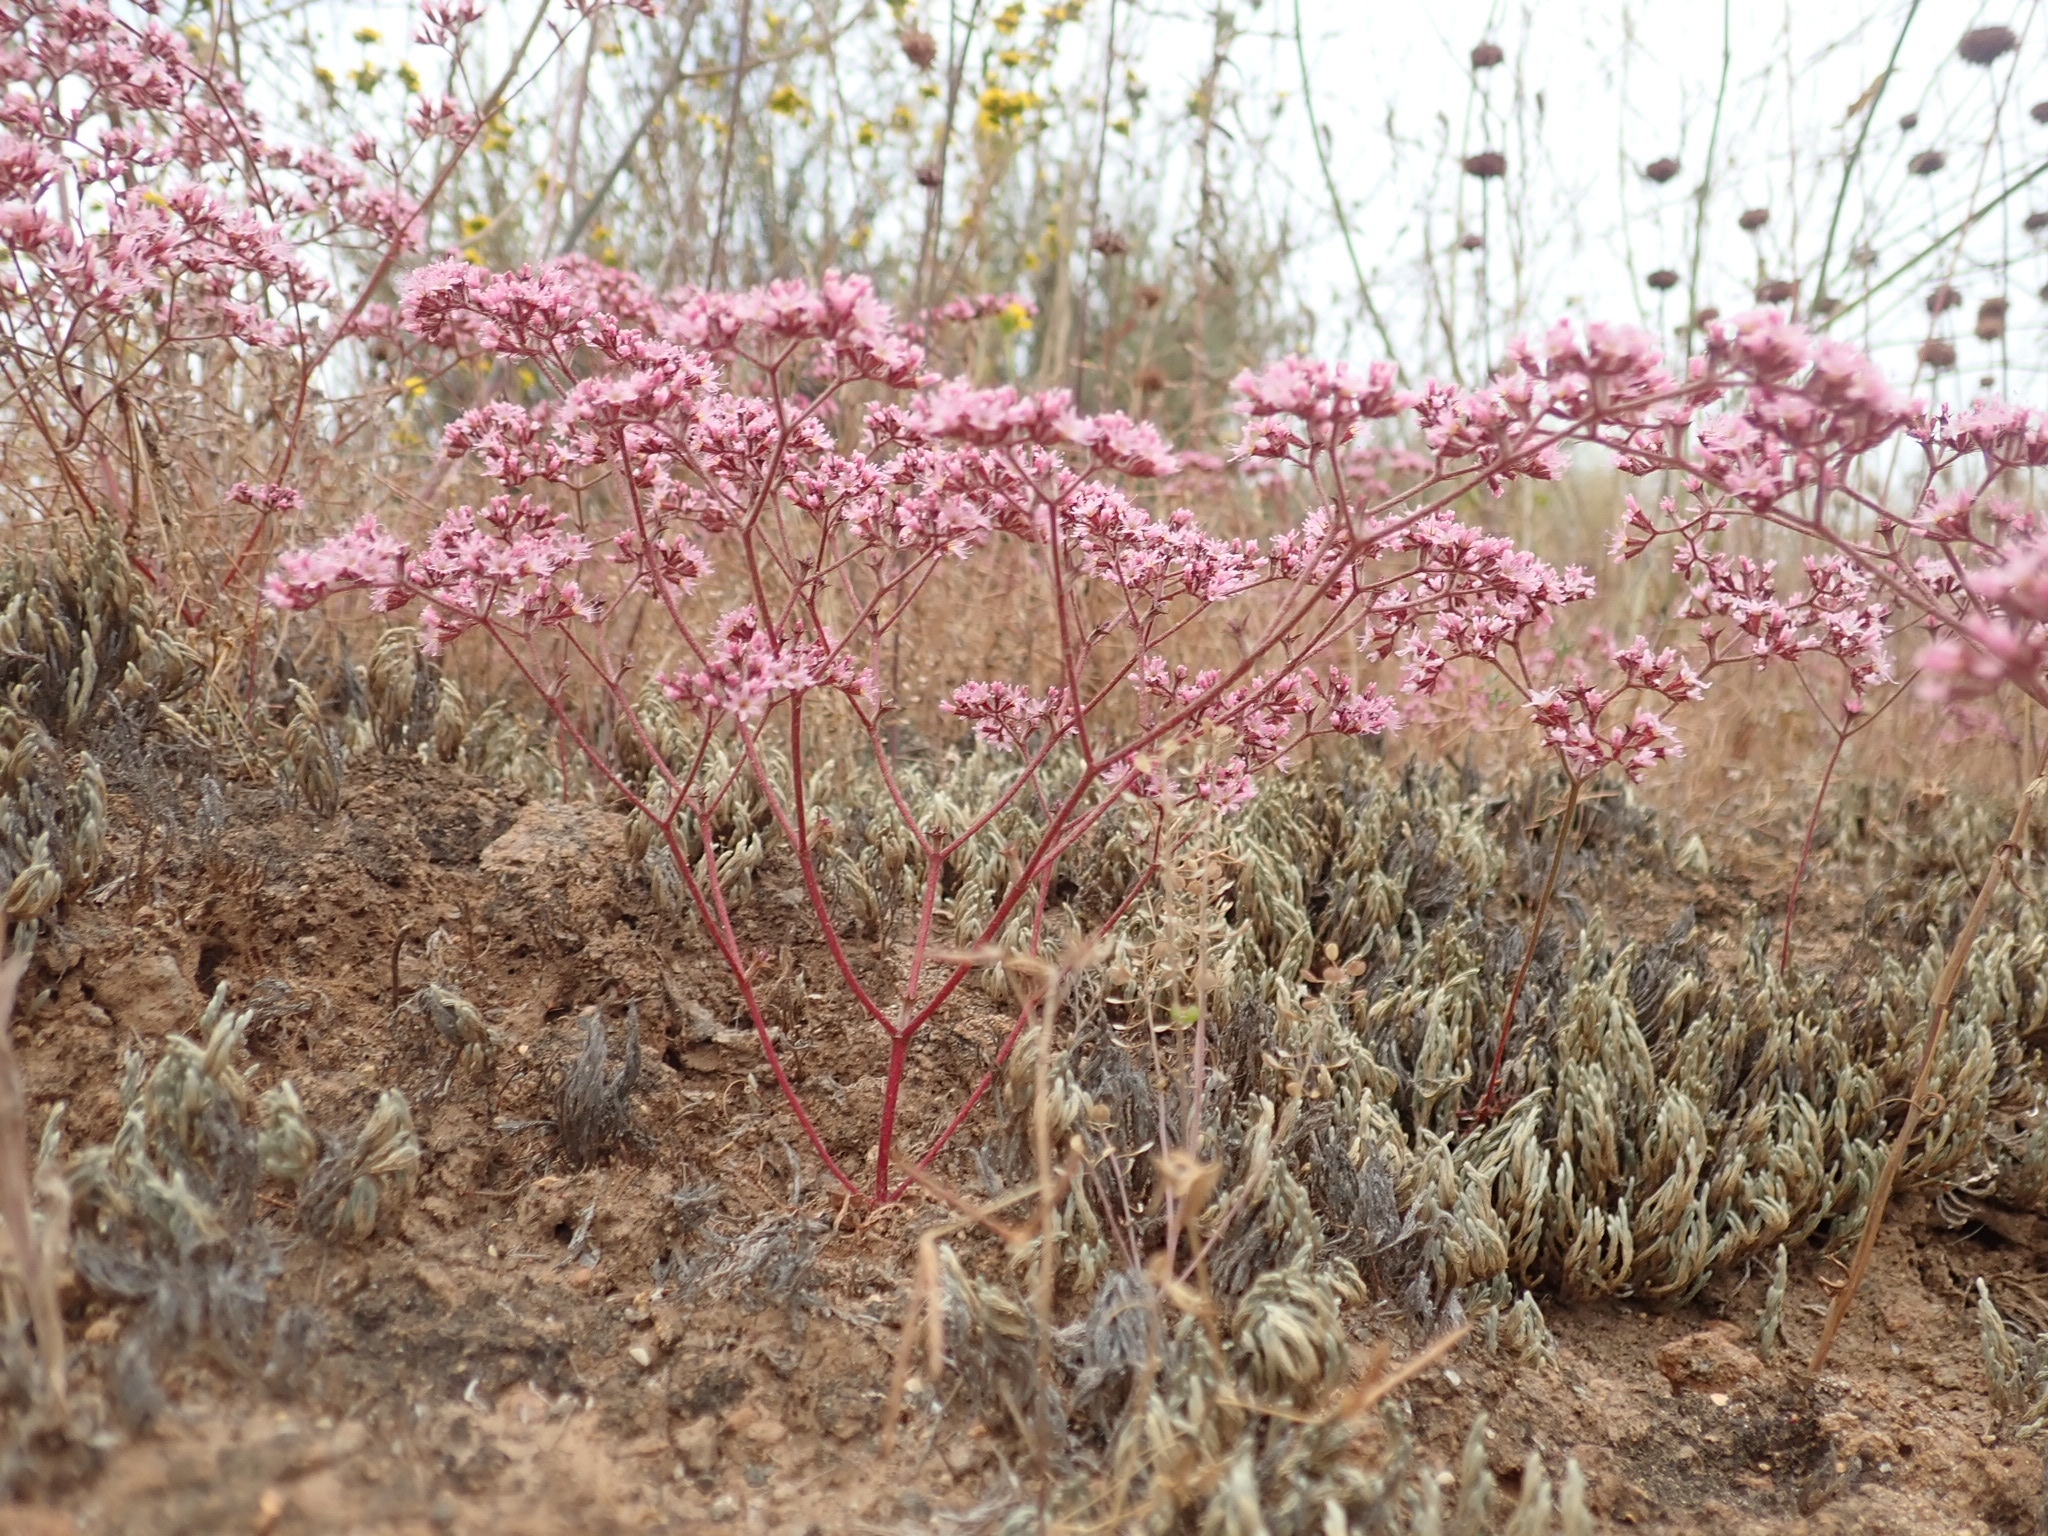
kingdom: Plantae
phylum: Tracheophyta
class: Magnoliopsida
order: Caryophyllales
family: Polygonaceae
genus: Chorizanthe
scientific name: Chorizanthe fimbriata
